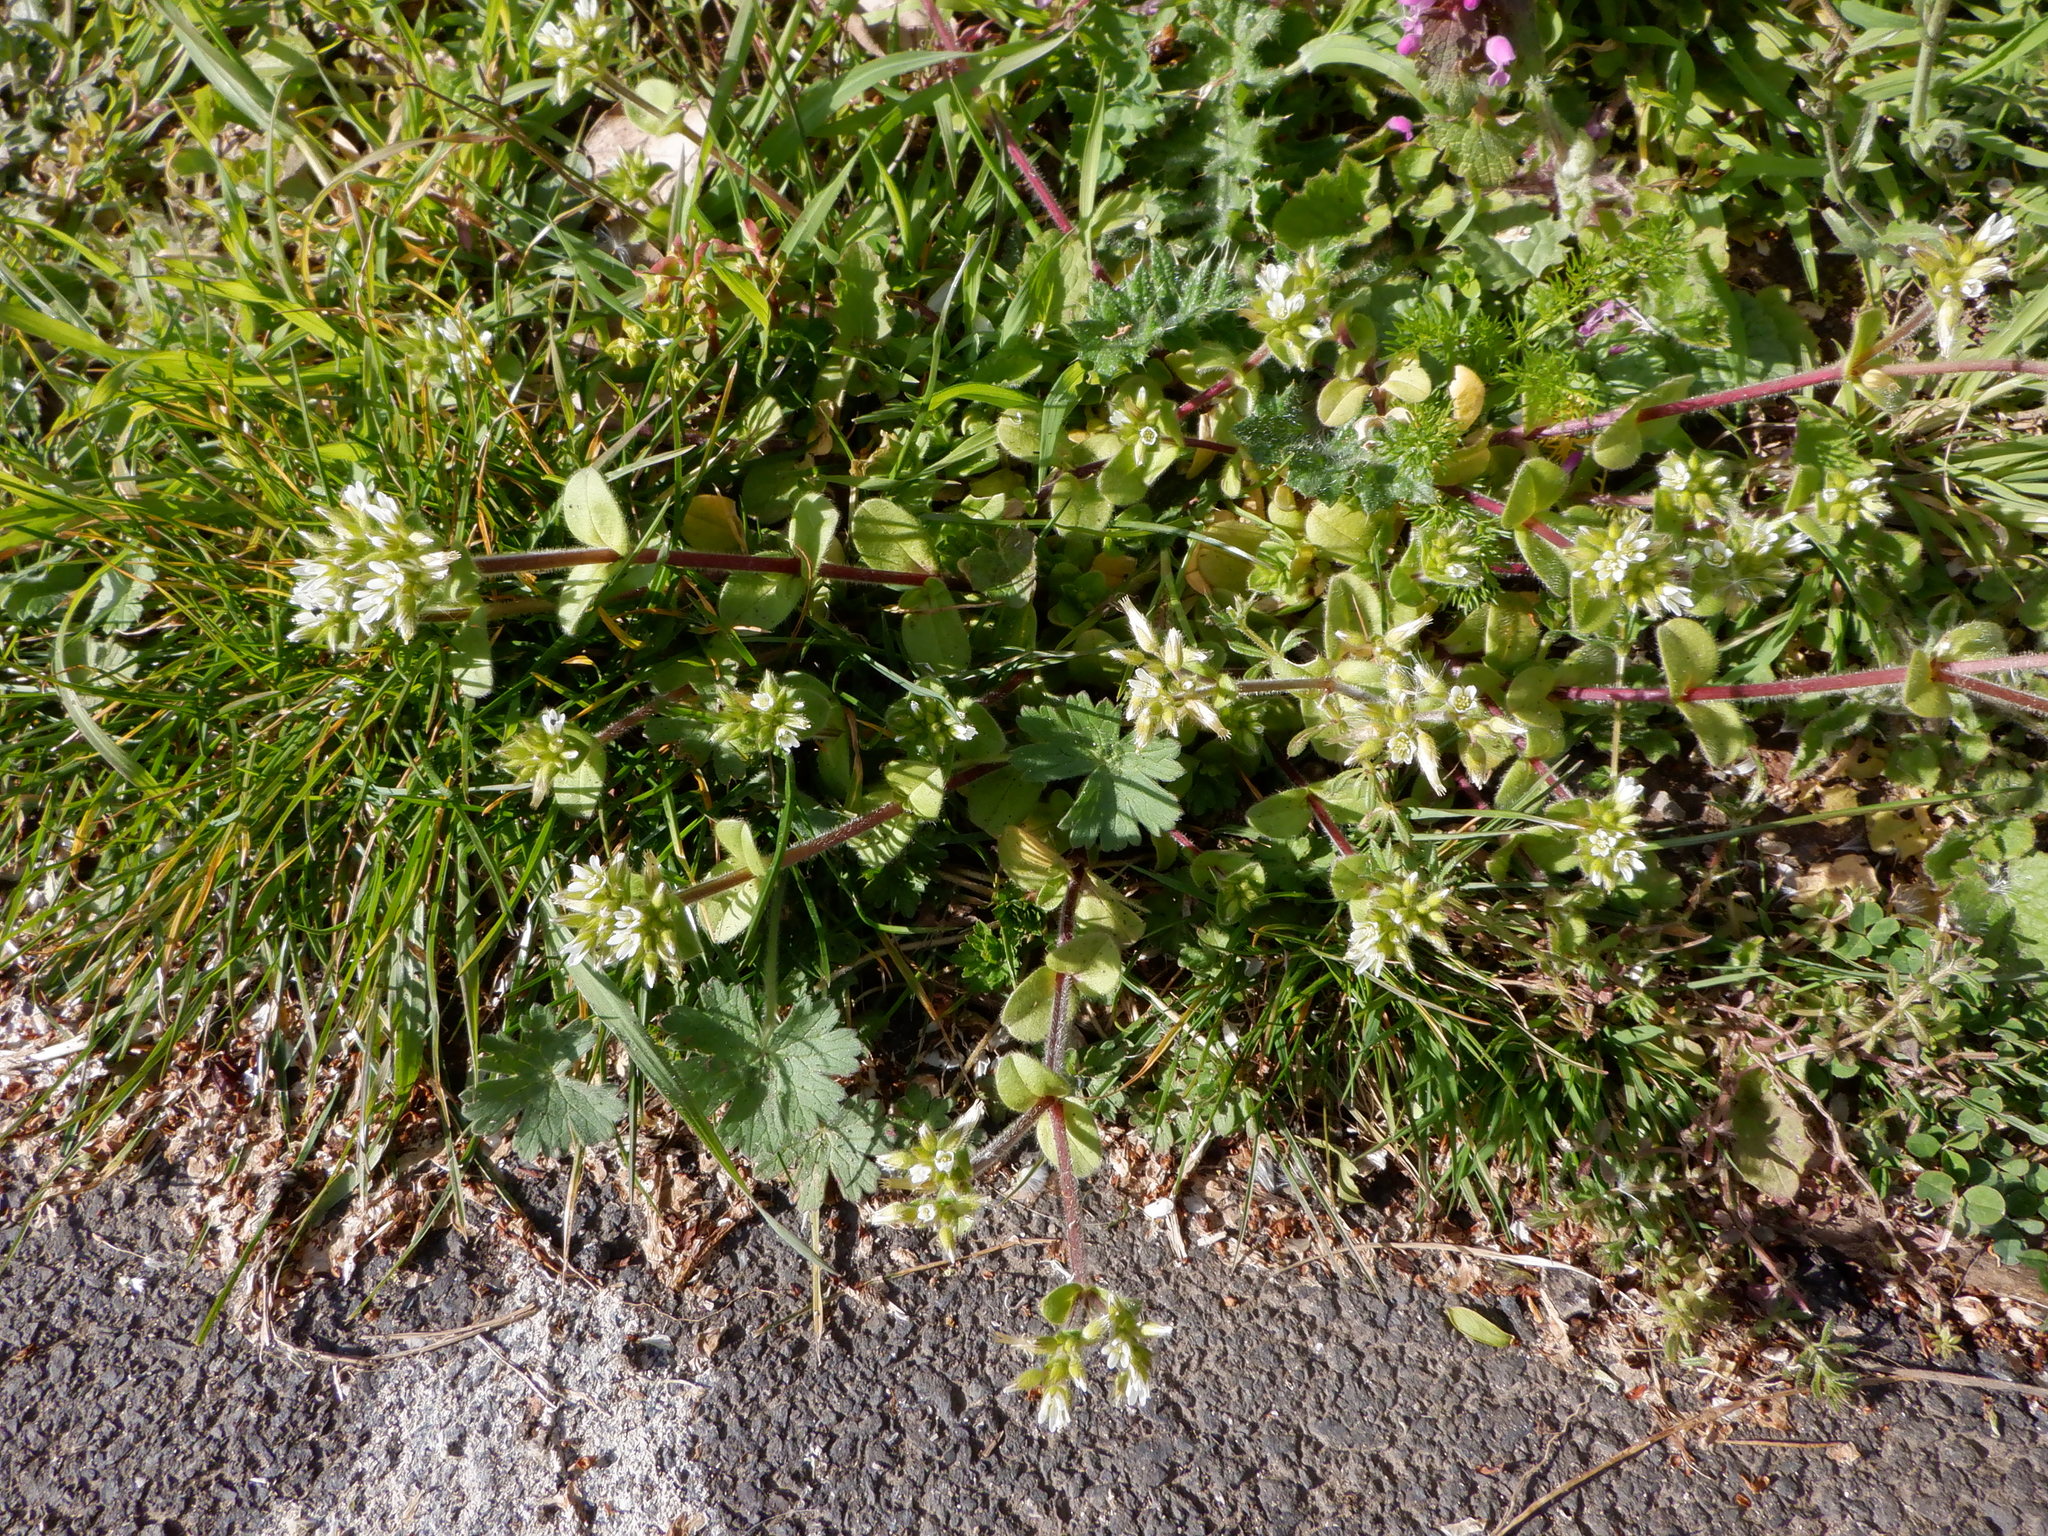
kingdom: Plantae
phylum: Tracheophyta
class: Magnoliopsida
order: Caryophyllales
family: Caryophyllaceae
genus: Cerastium
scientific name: Cerastium glomeratum
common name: Sticky chickweed
